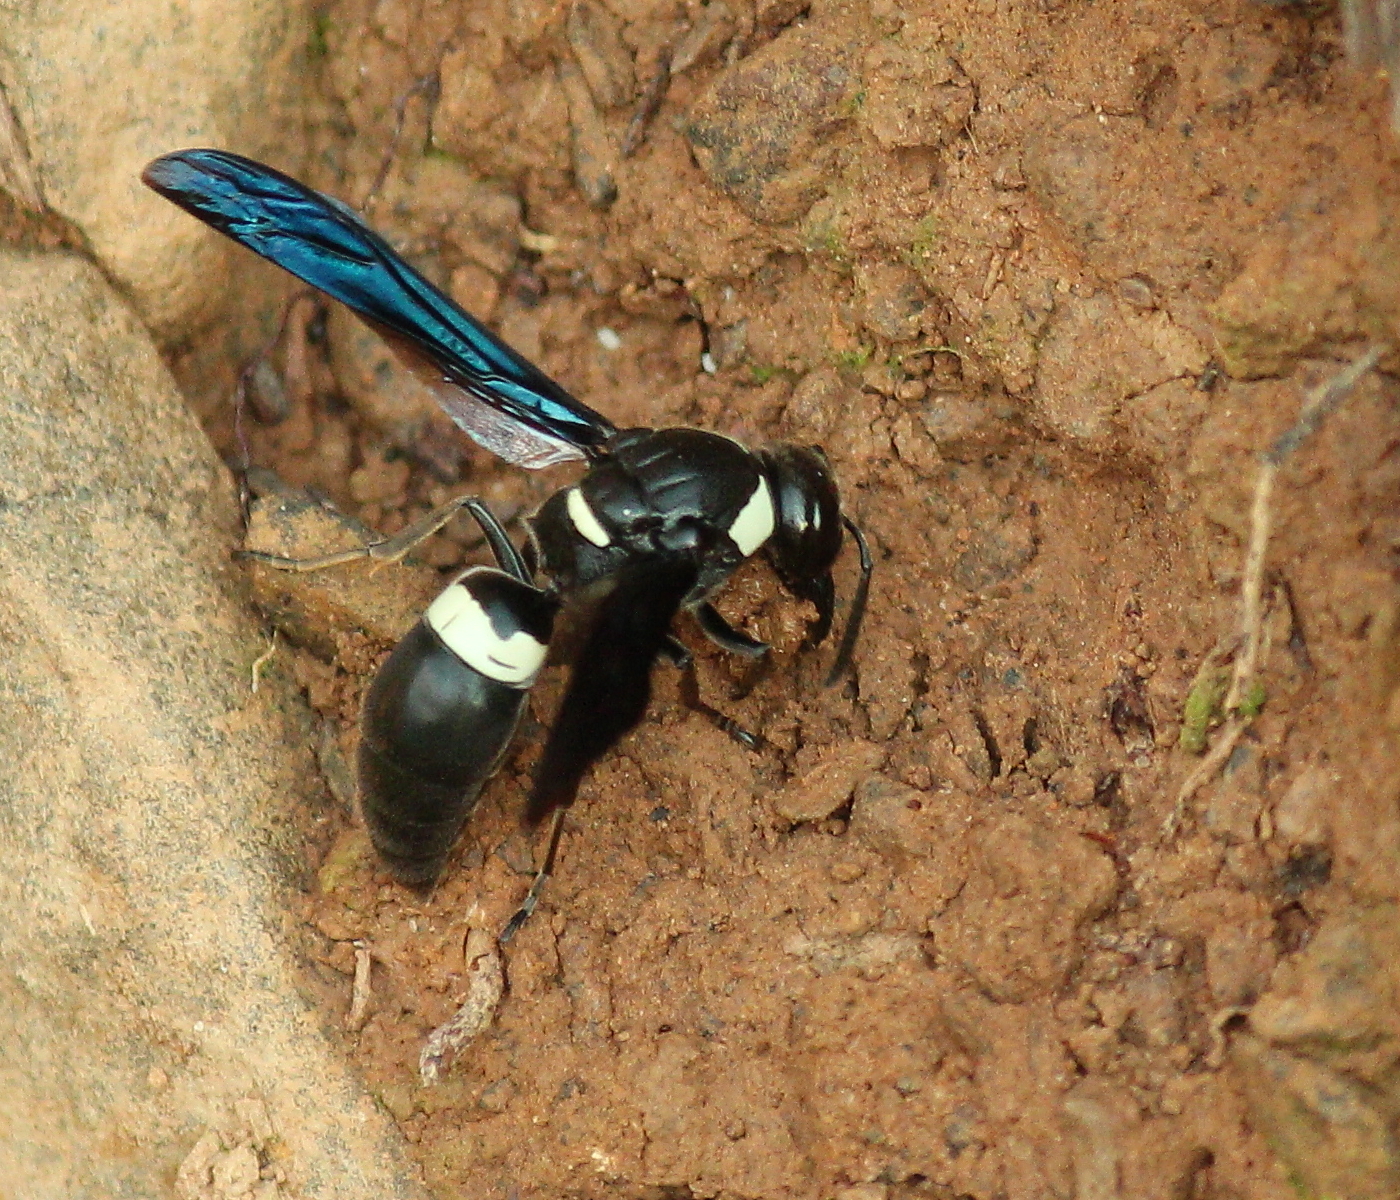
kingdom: Animalia
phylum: Arthropoda
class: Insecta
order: Hymenoptera
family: Eumenidae
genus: Monobia
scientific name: Monobia quadridens
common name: Four-toothed mason wasp
